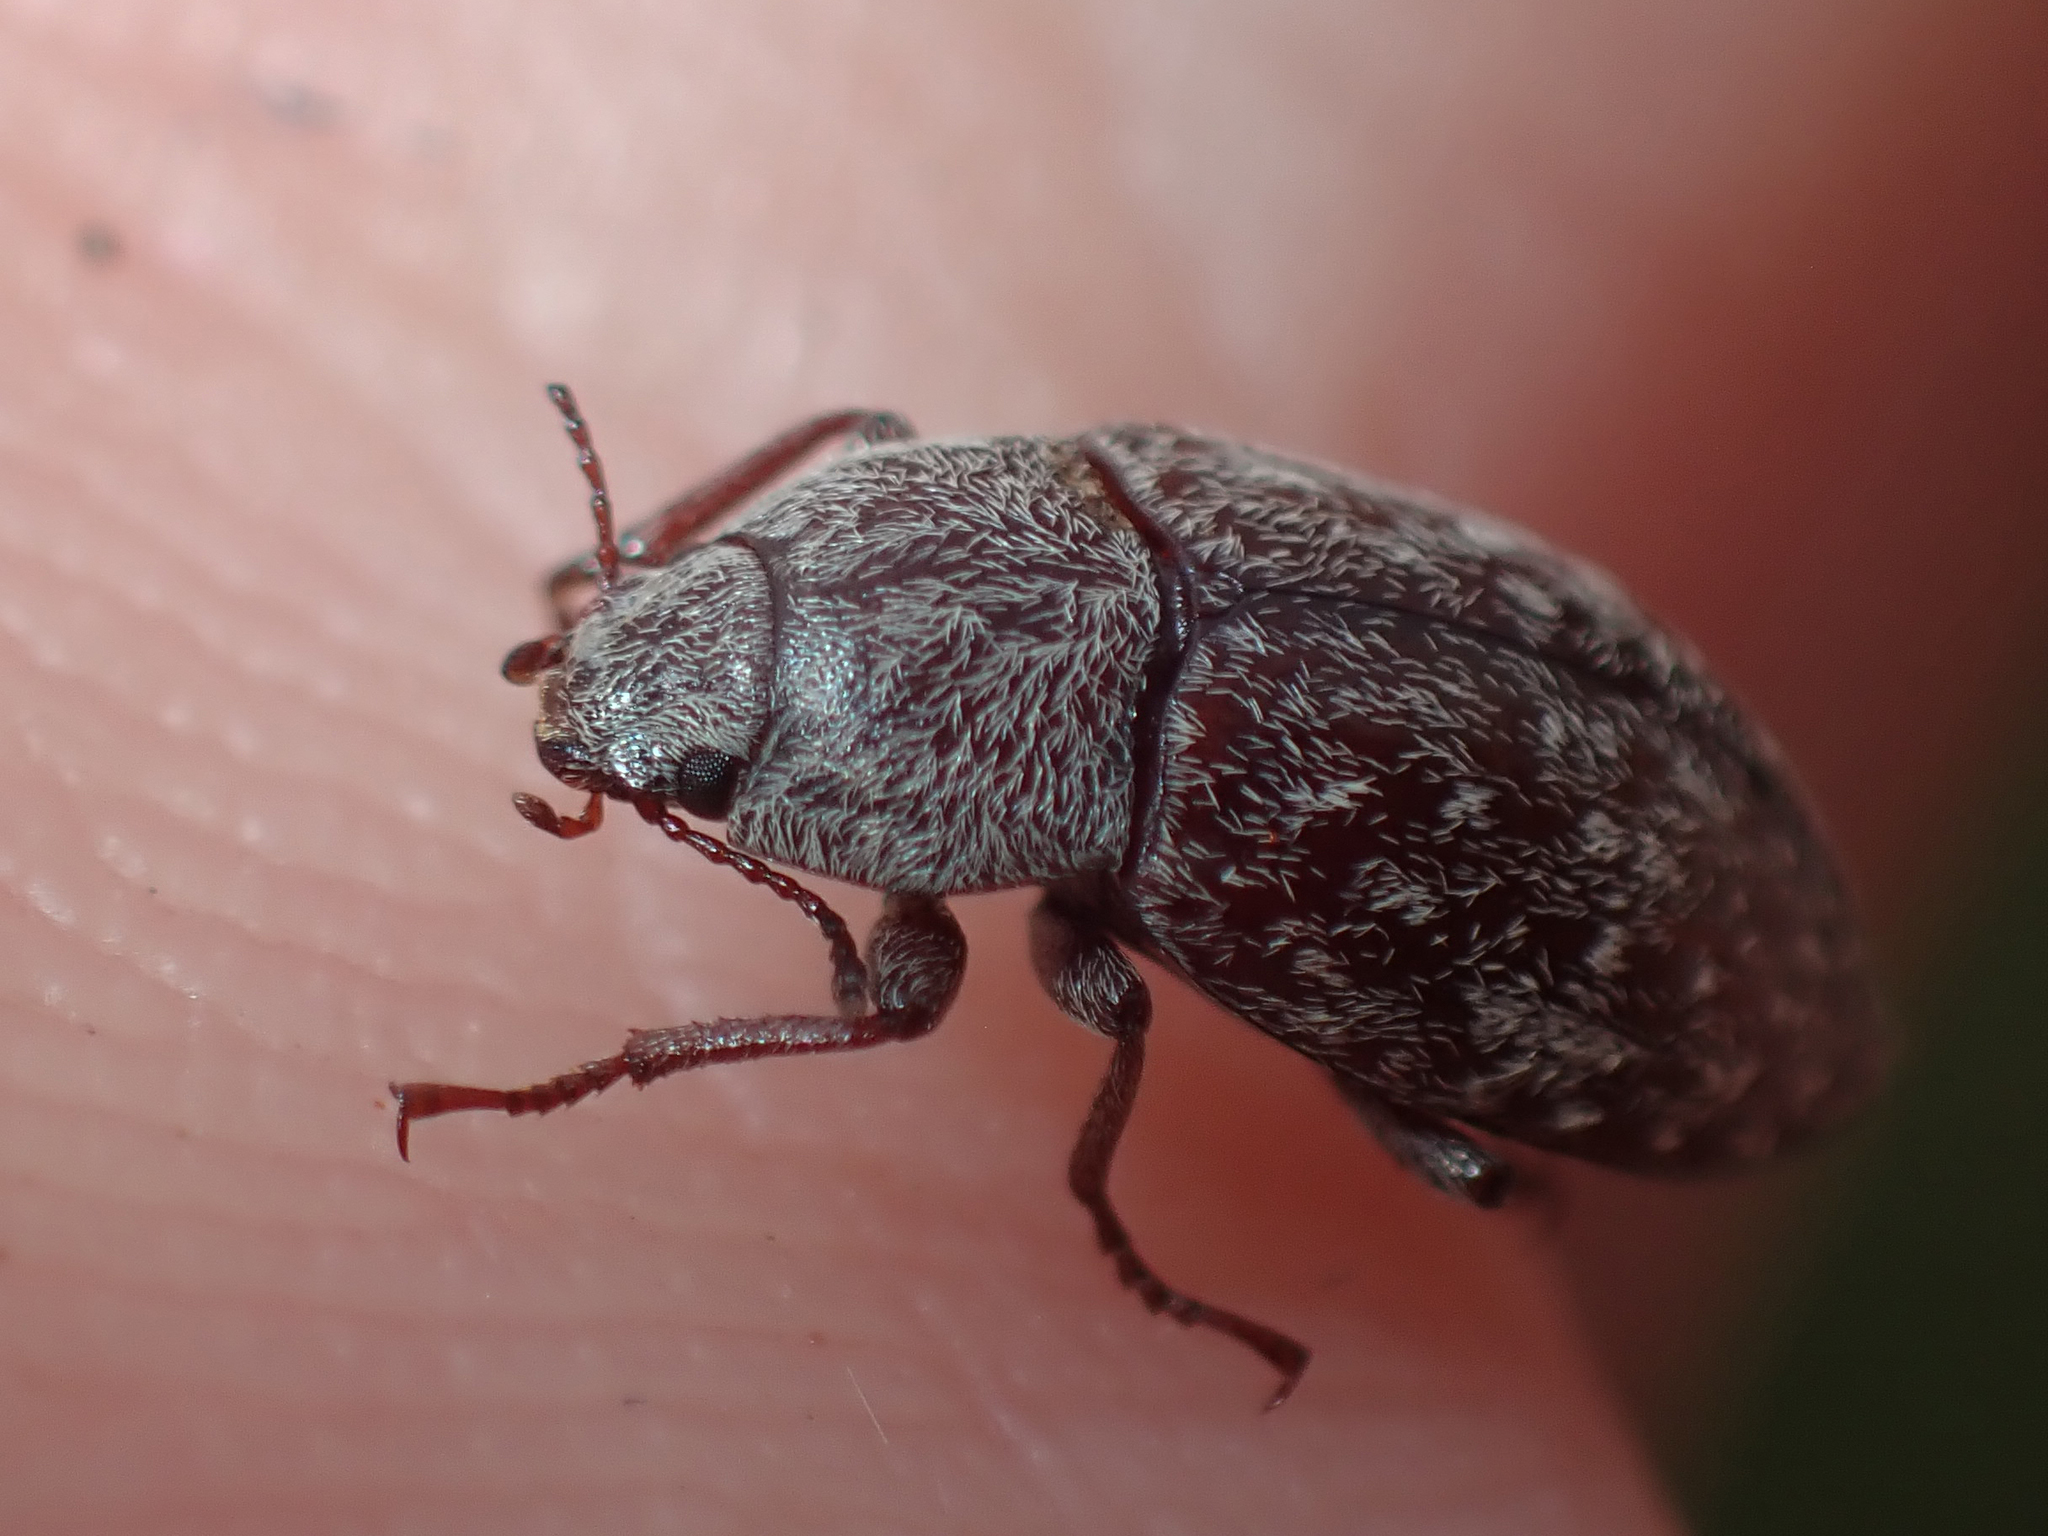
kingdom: Animalia
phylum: Arthropoda
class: Insecta
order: Coleoptera
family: Tenebrionidae
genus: Epitragodes
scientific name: Epitragodes tomentosus
